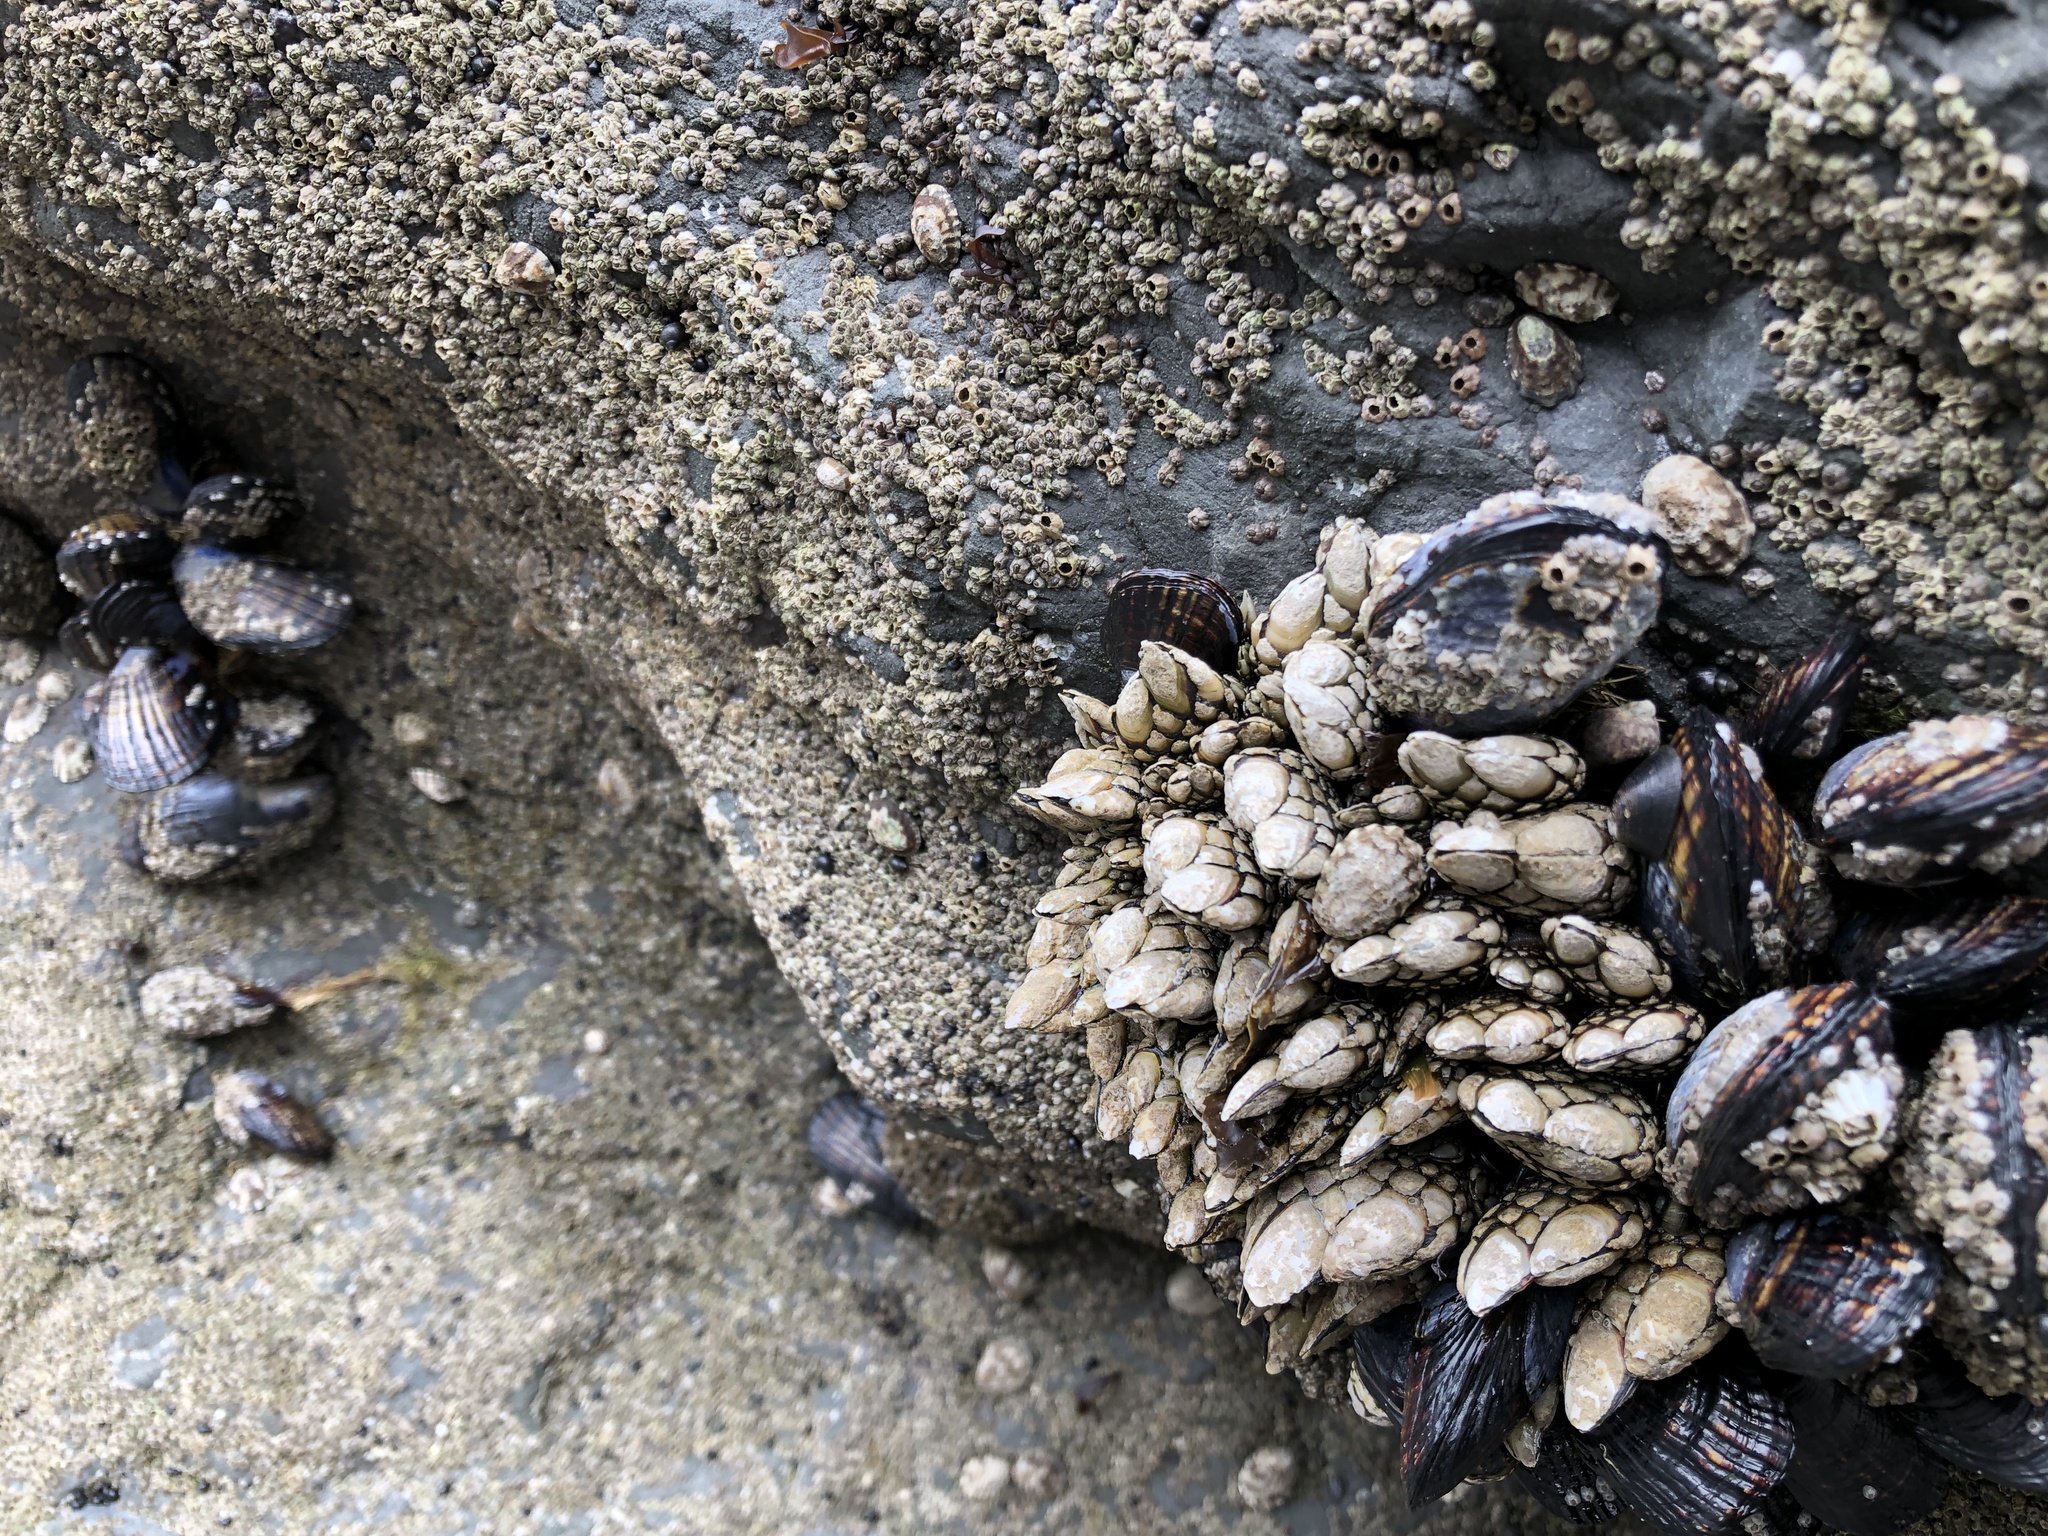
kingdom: Animalia
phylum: Arthropoda
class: Maxillopoda
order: Pedunculata
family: Pollicipedidae
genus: Pollicipes
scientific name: Pollicipes polymerus
